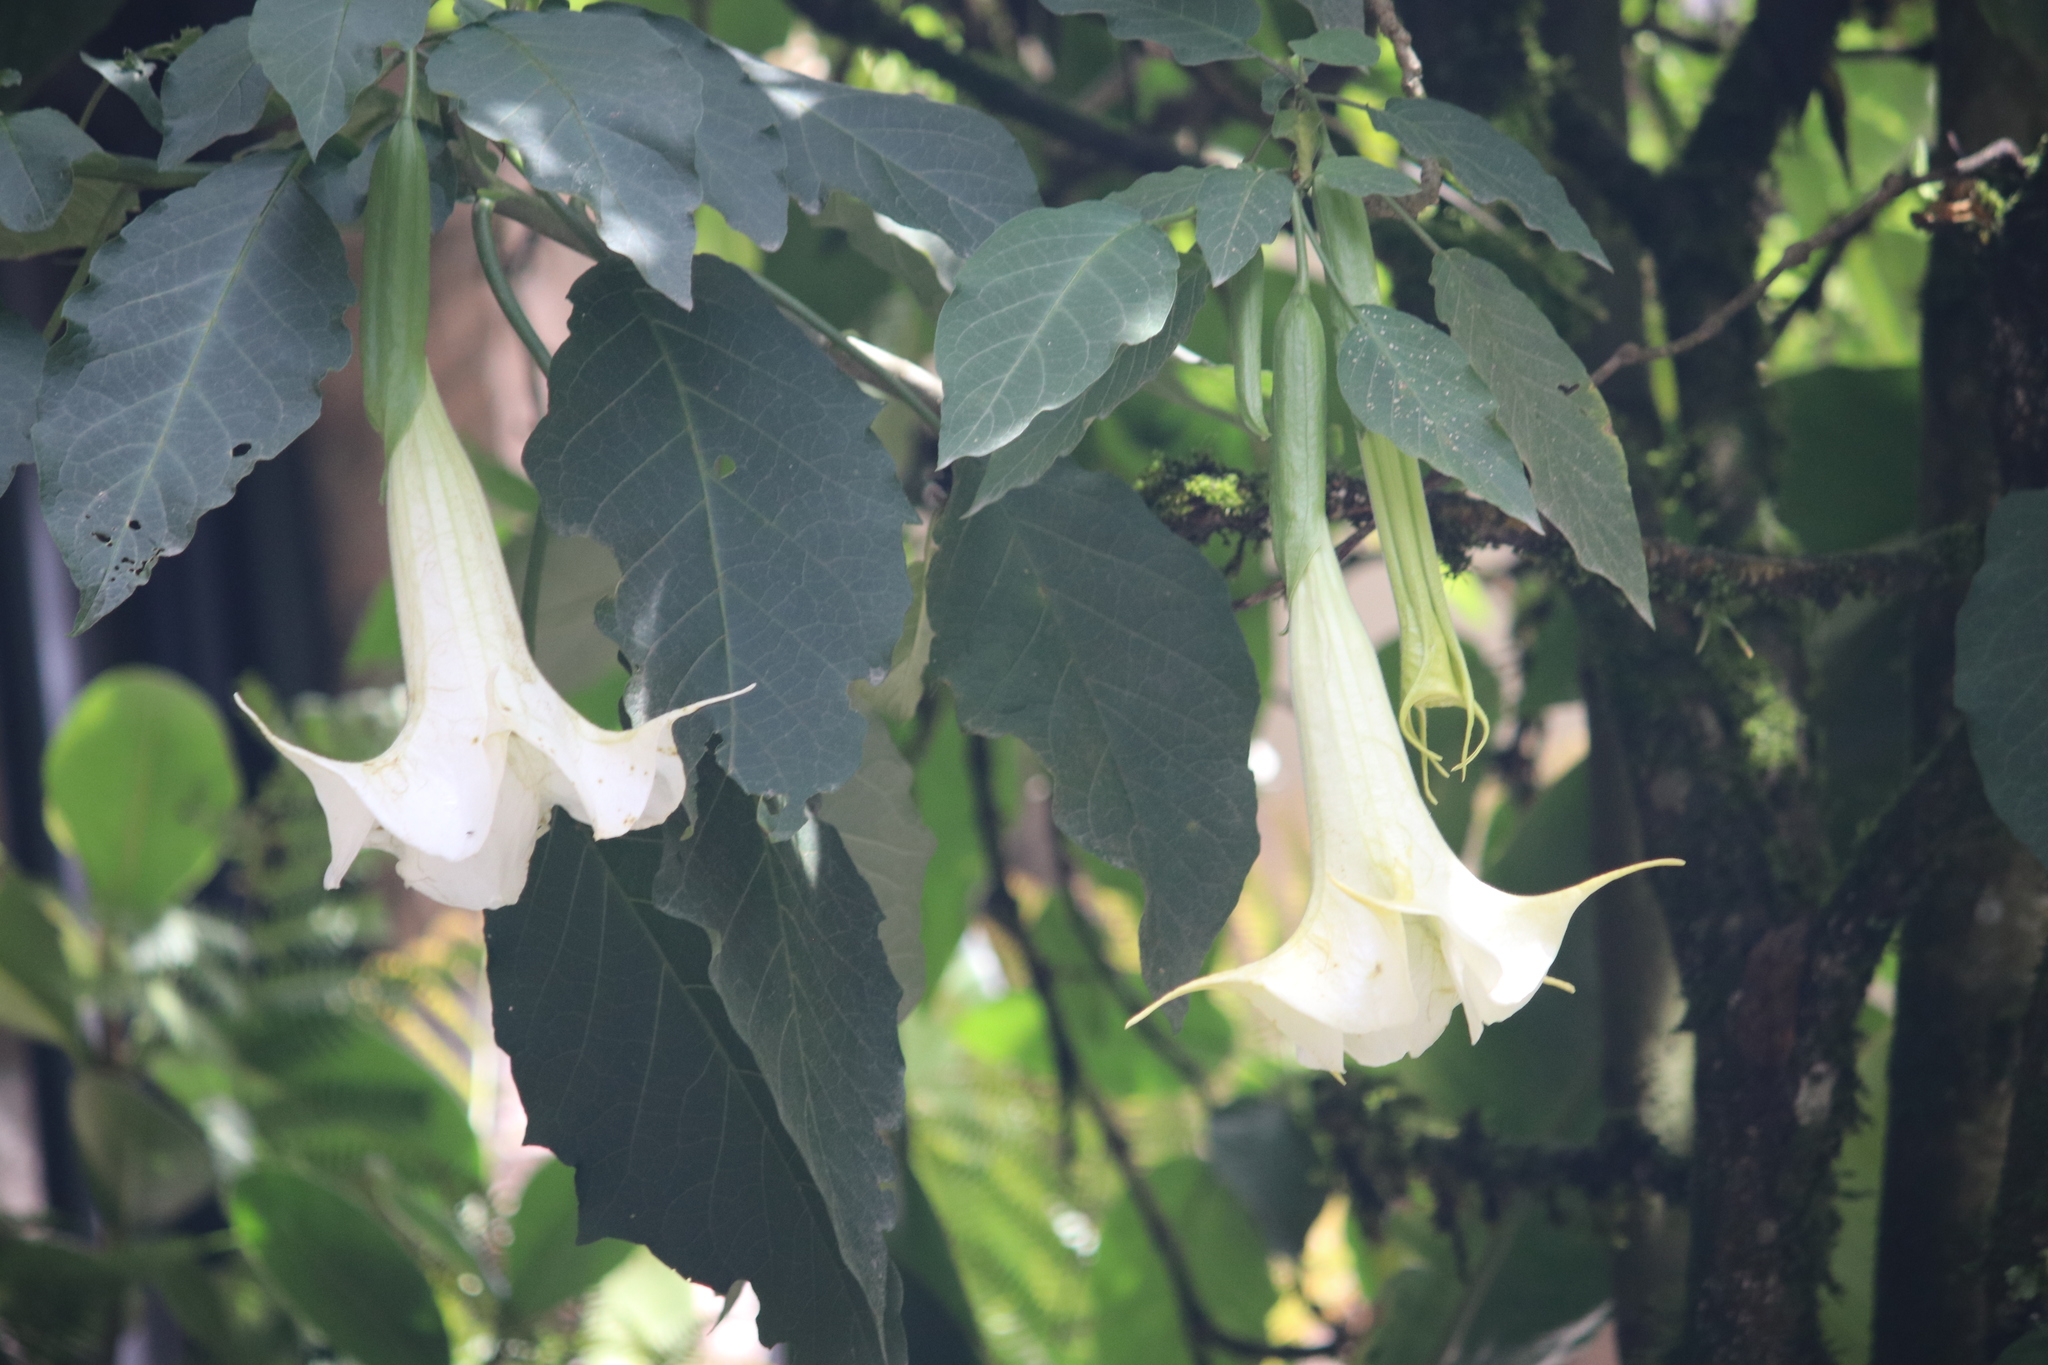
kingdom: Plantae
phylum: Tracheophyta
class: Magnoliopsida
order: Solanales
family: Solanaceae
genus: Brugmansia
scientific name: Brugmansia arborea
